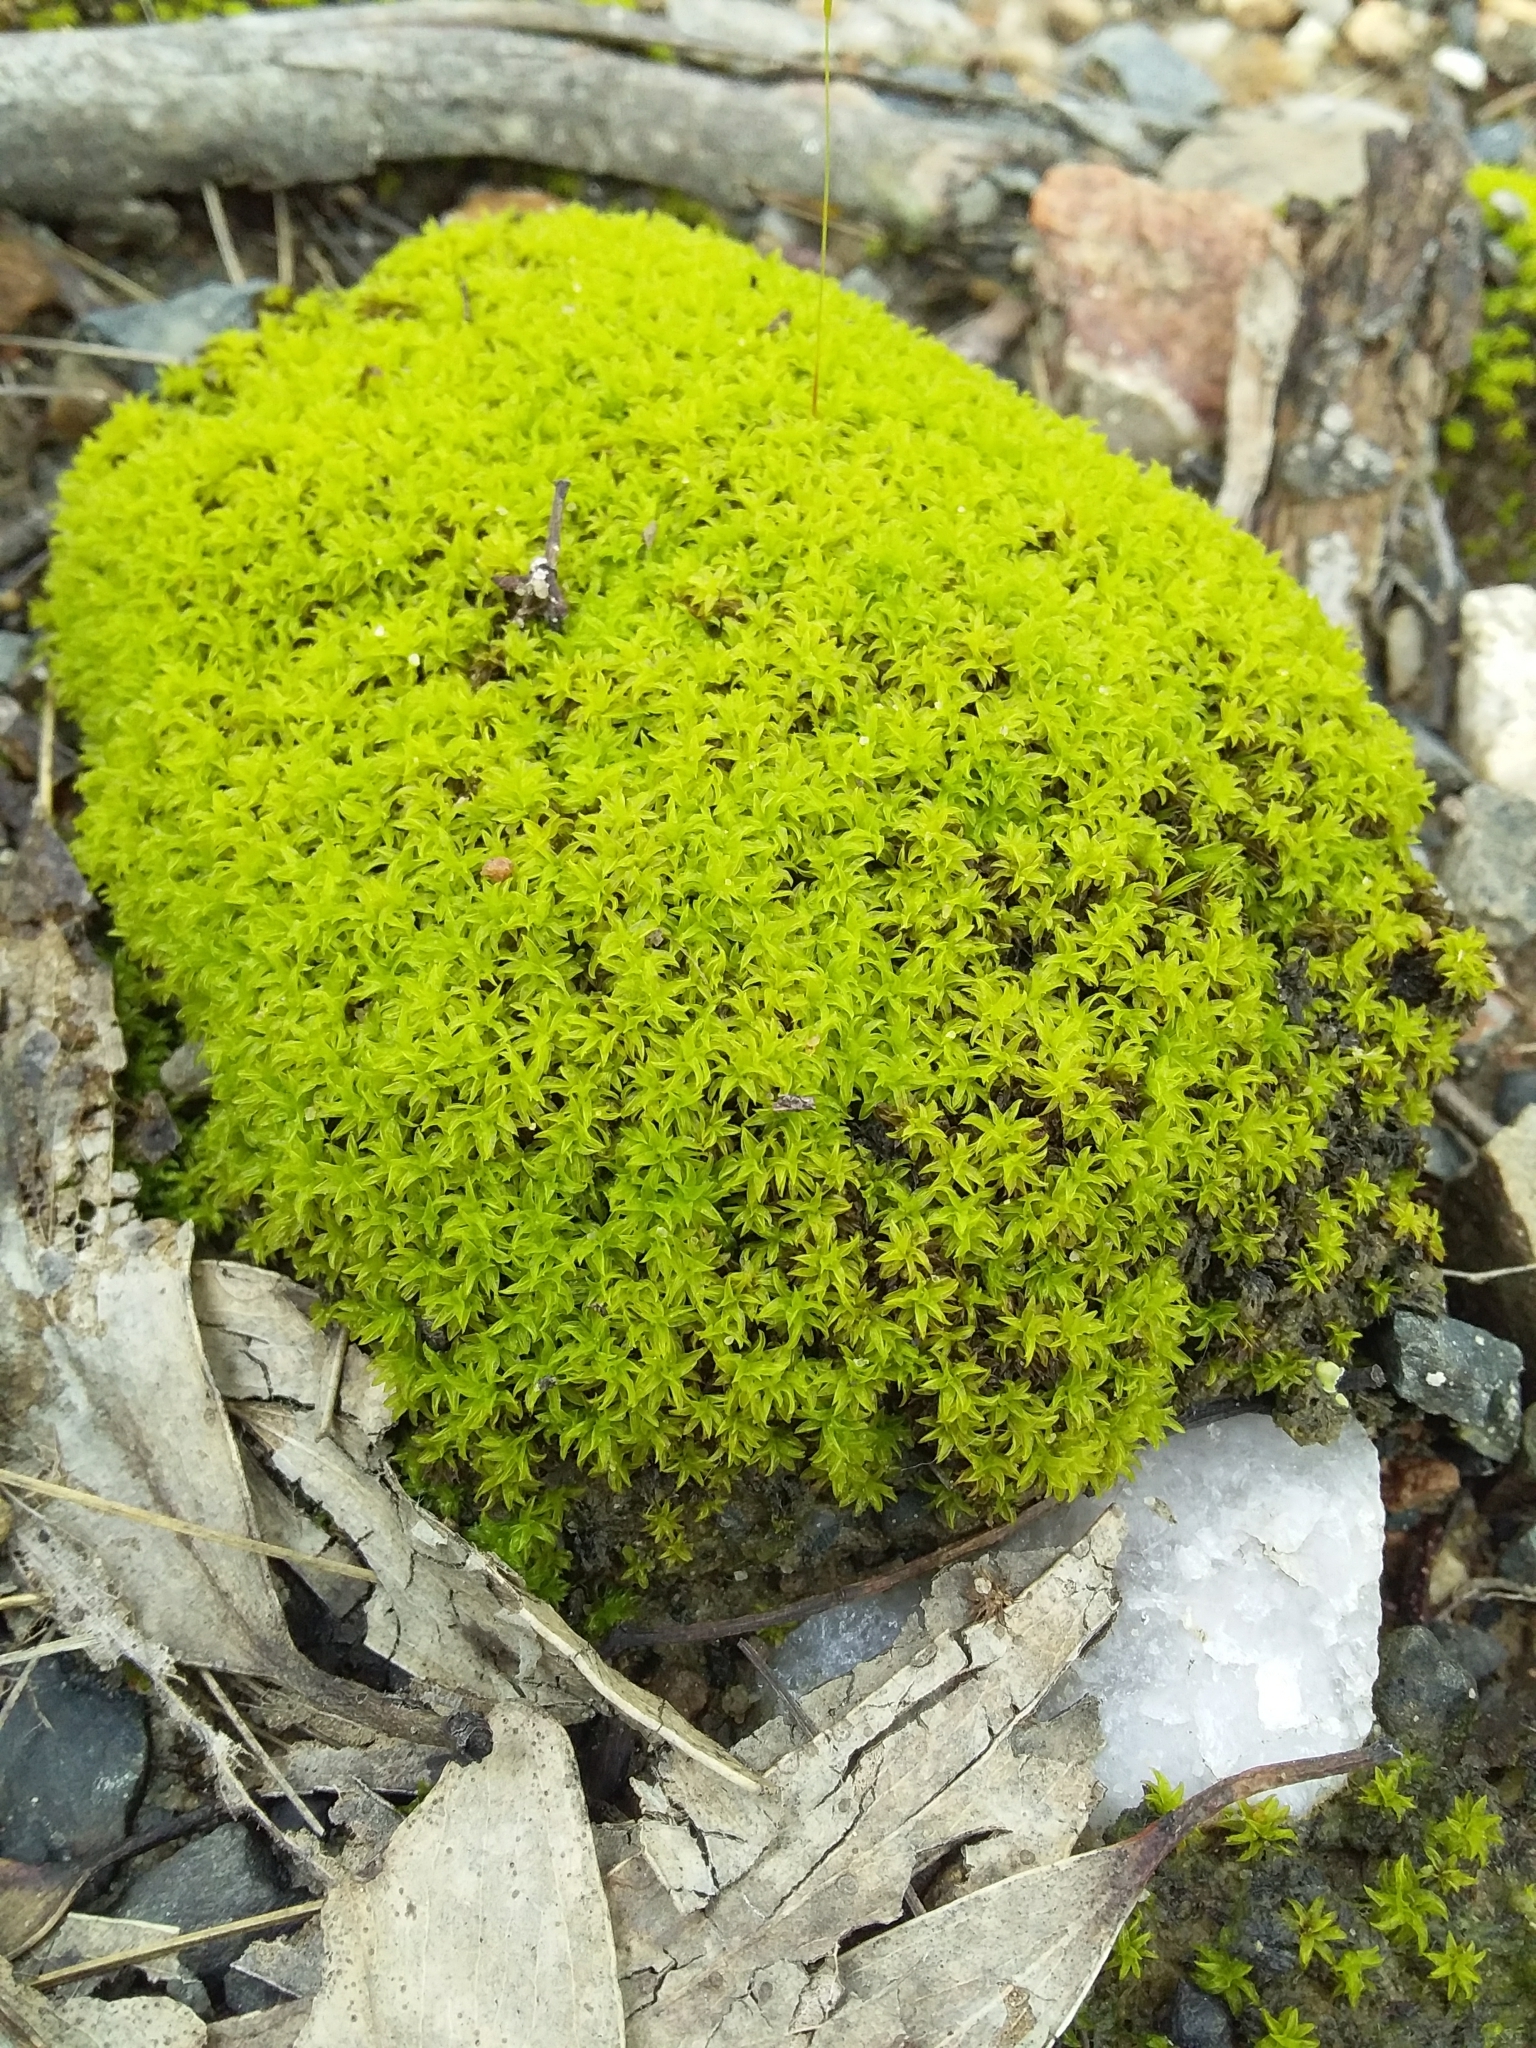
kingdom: Plantae
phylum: Bryophyta
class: Bryopsida
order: Pottiales
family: Pottiaceae
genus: Barbula
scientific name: Barbula calycina
